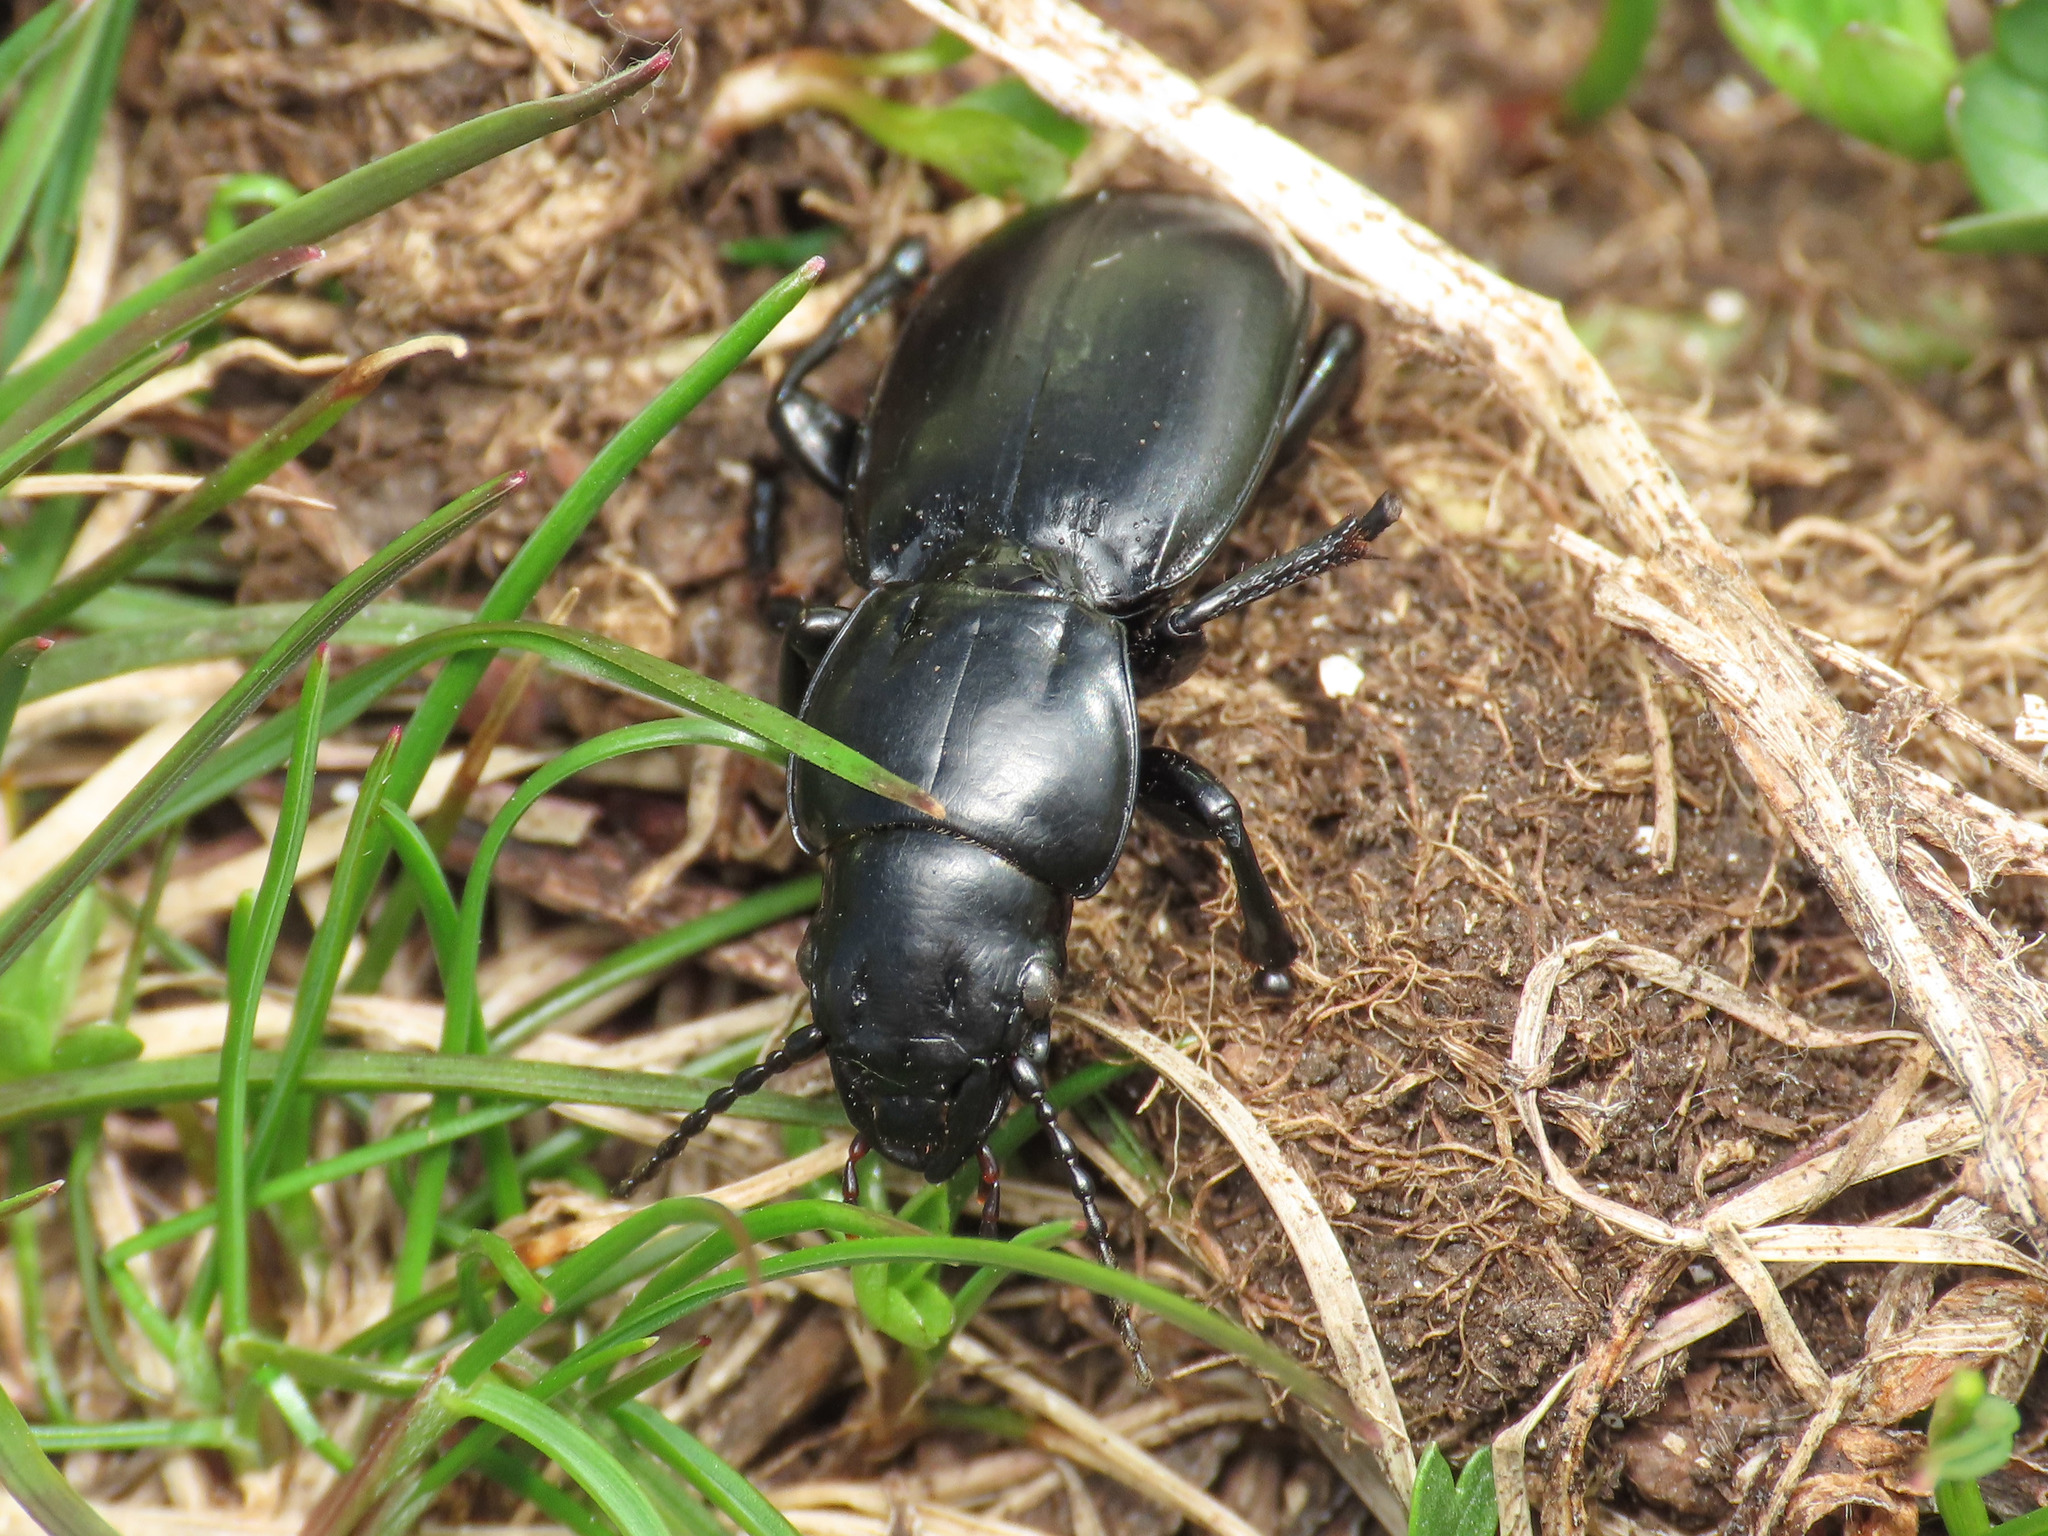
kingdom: Animalia
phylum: Arthropoda
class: Insecta
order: Coleoptera
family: Carabidae
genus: Percus
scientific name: Percus dejeanii
